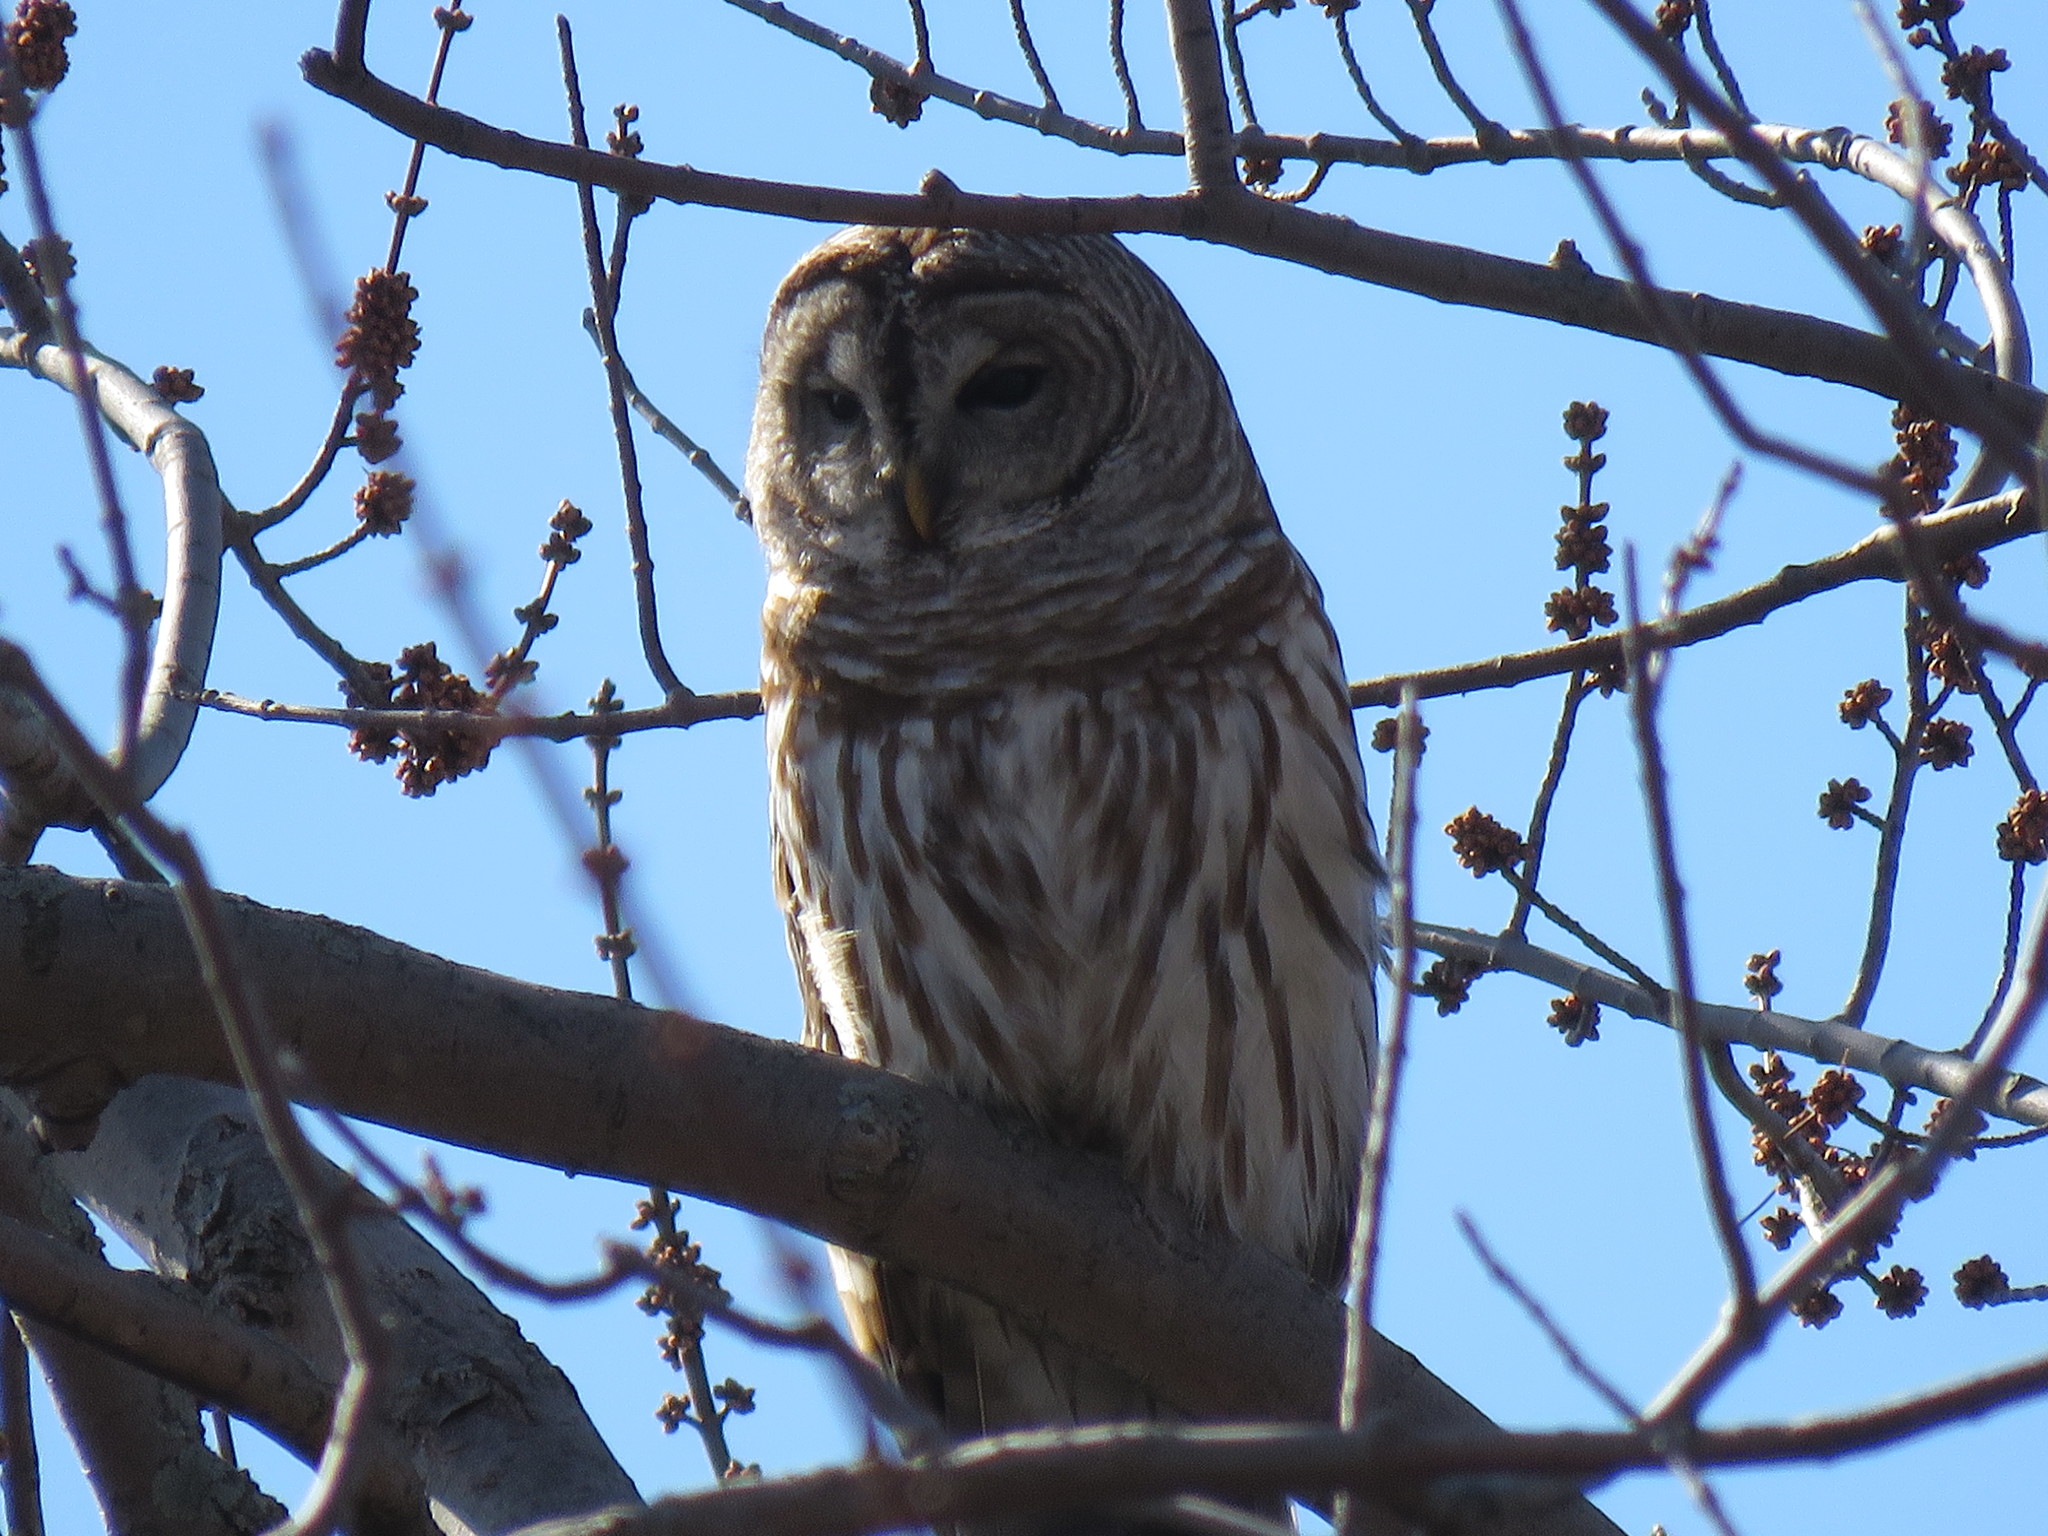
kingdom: Animalia
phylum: Chordata
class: Aves
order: Strigiformes
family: Strigidae
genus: Strix
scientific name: Strix varia
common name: Barred owl
